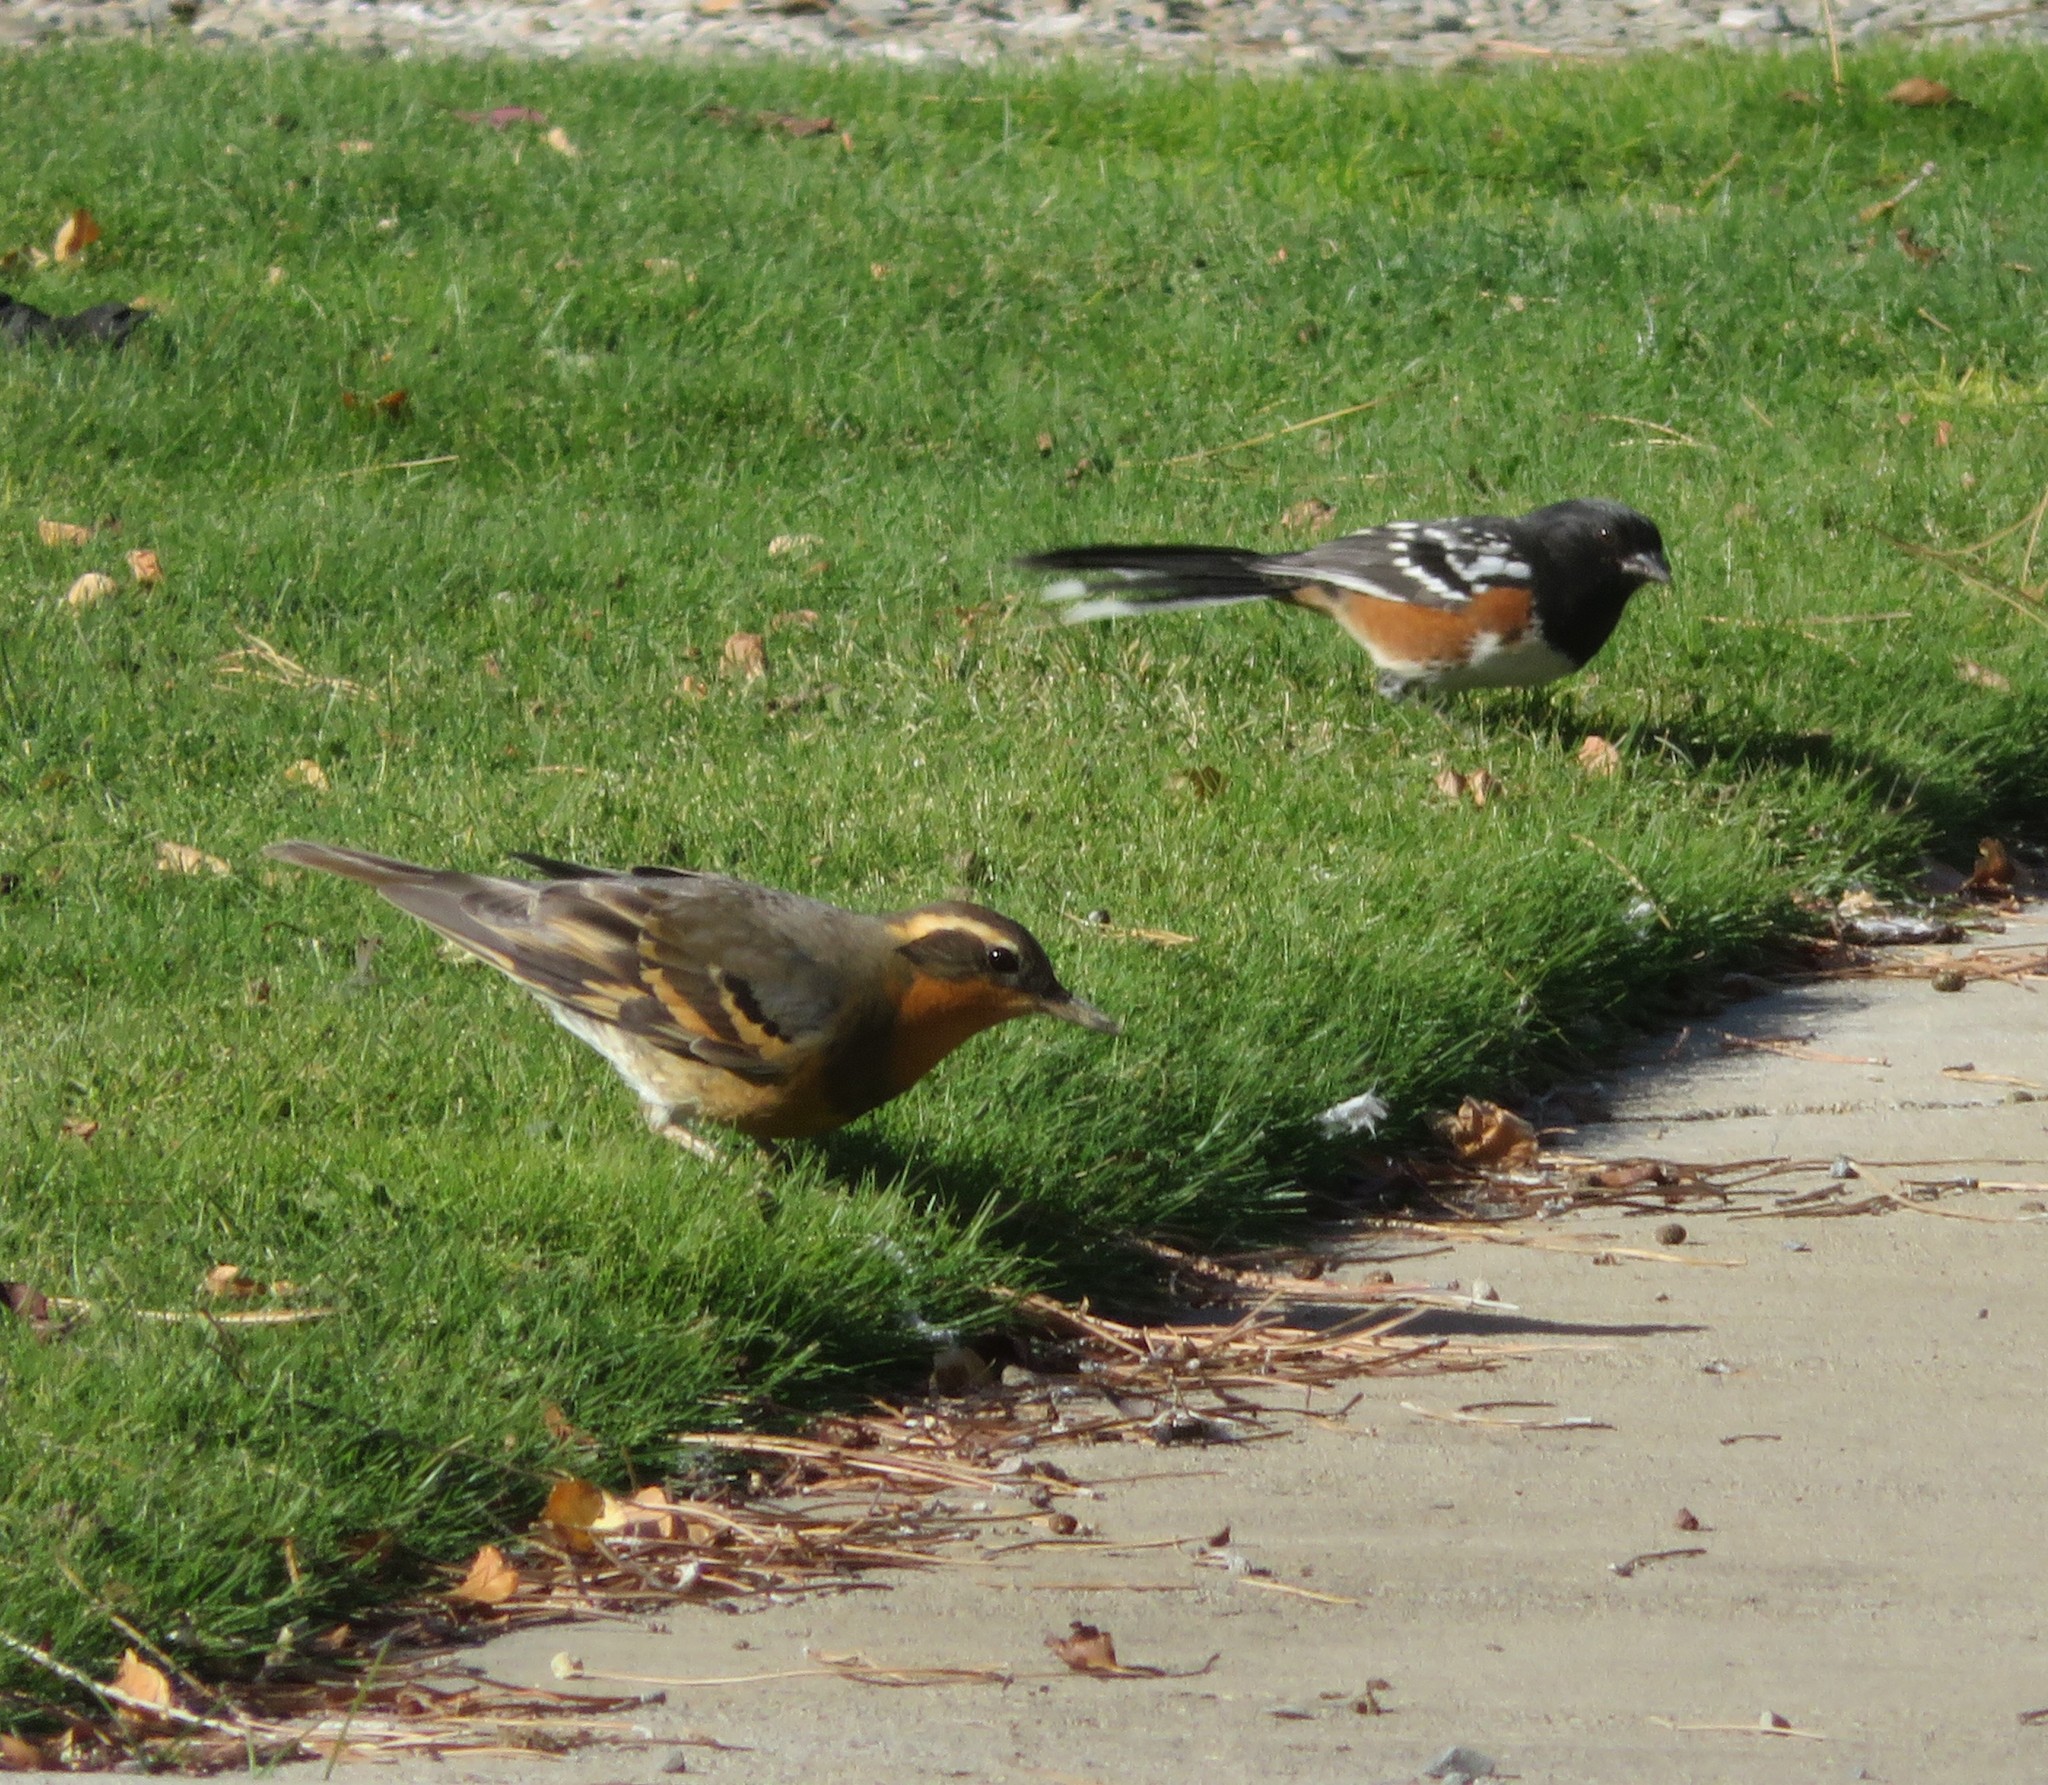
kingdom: Animalia
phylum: Chordata
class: Aves
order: Passeriformes
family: Turdidae
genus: Ixoreus
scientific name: Ixoreus naevius
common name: Varied thrush
